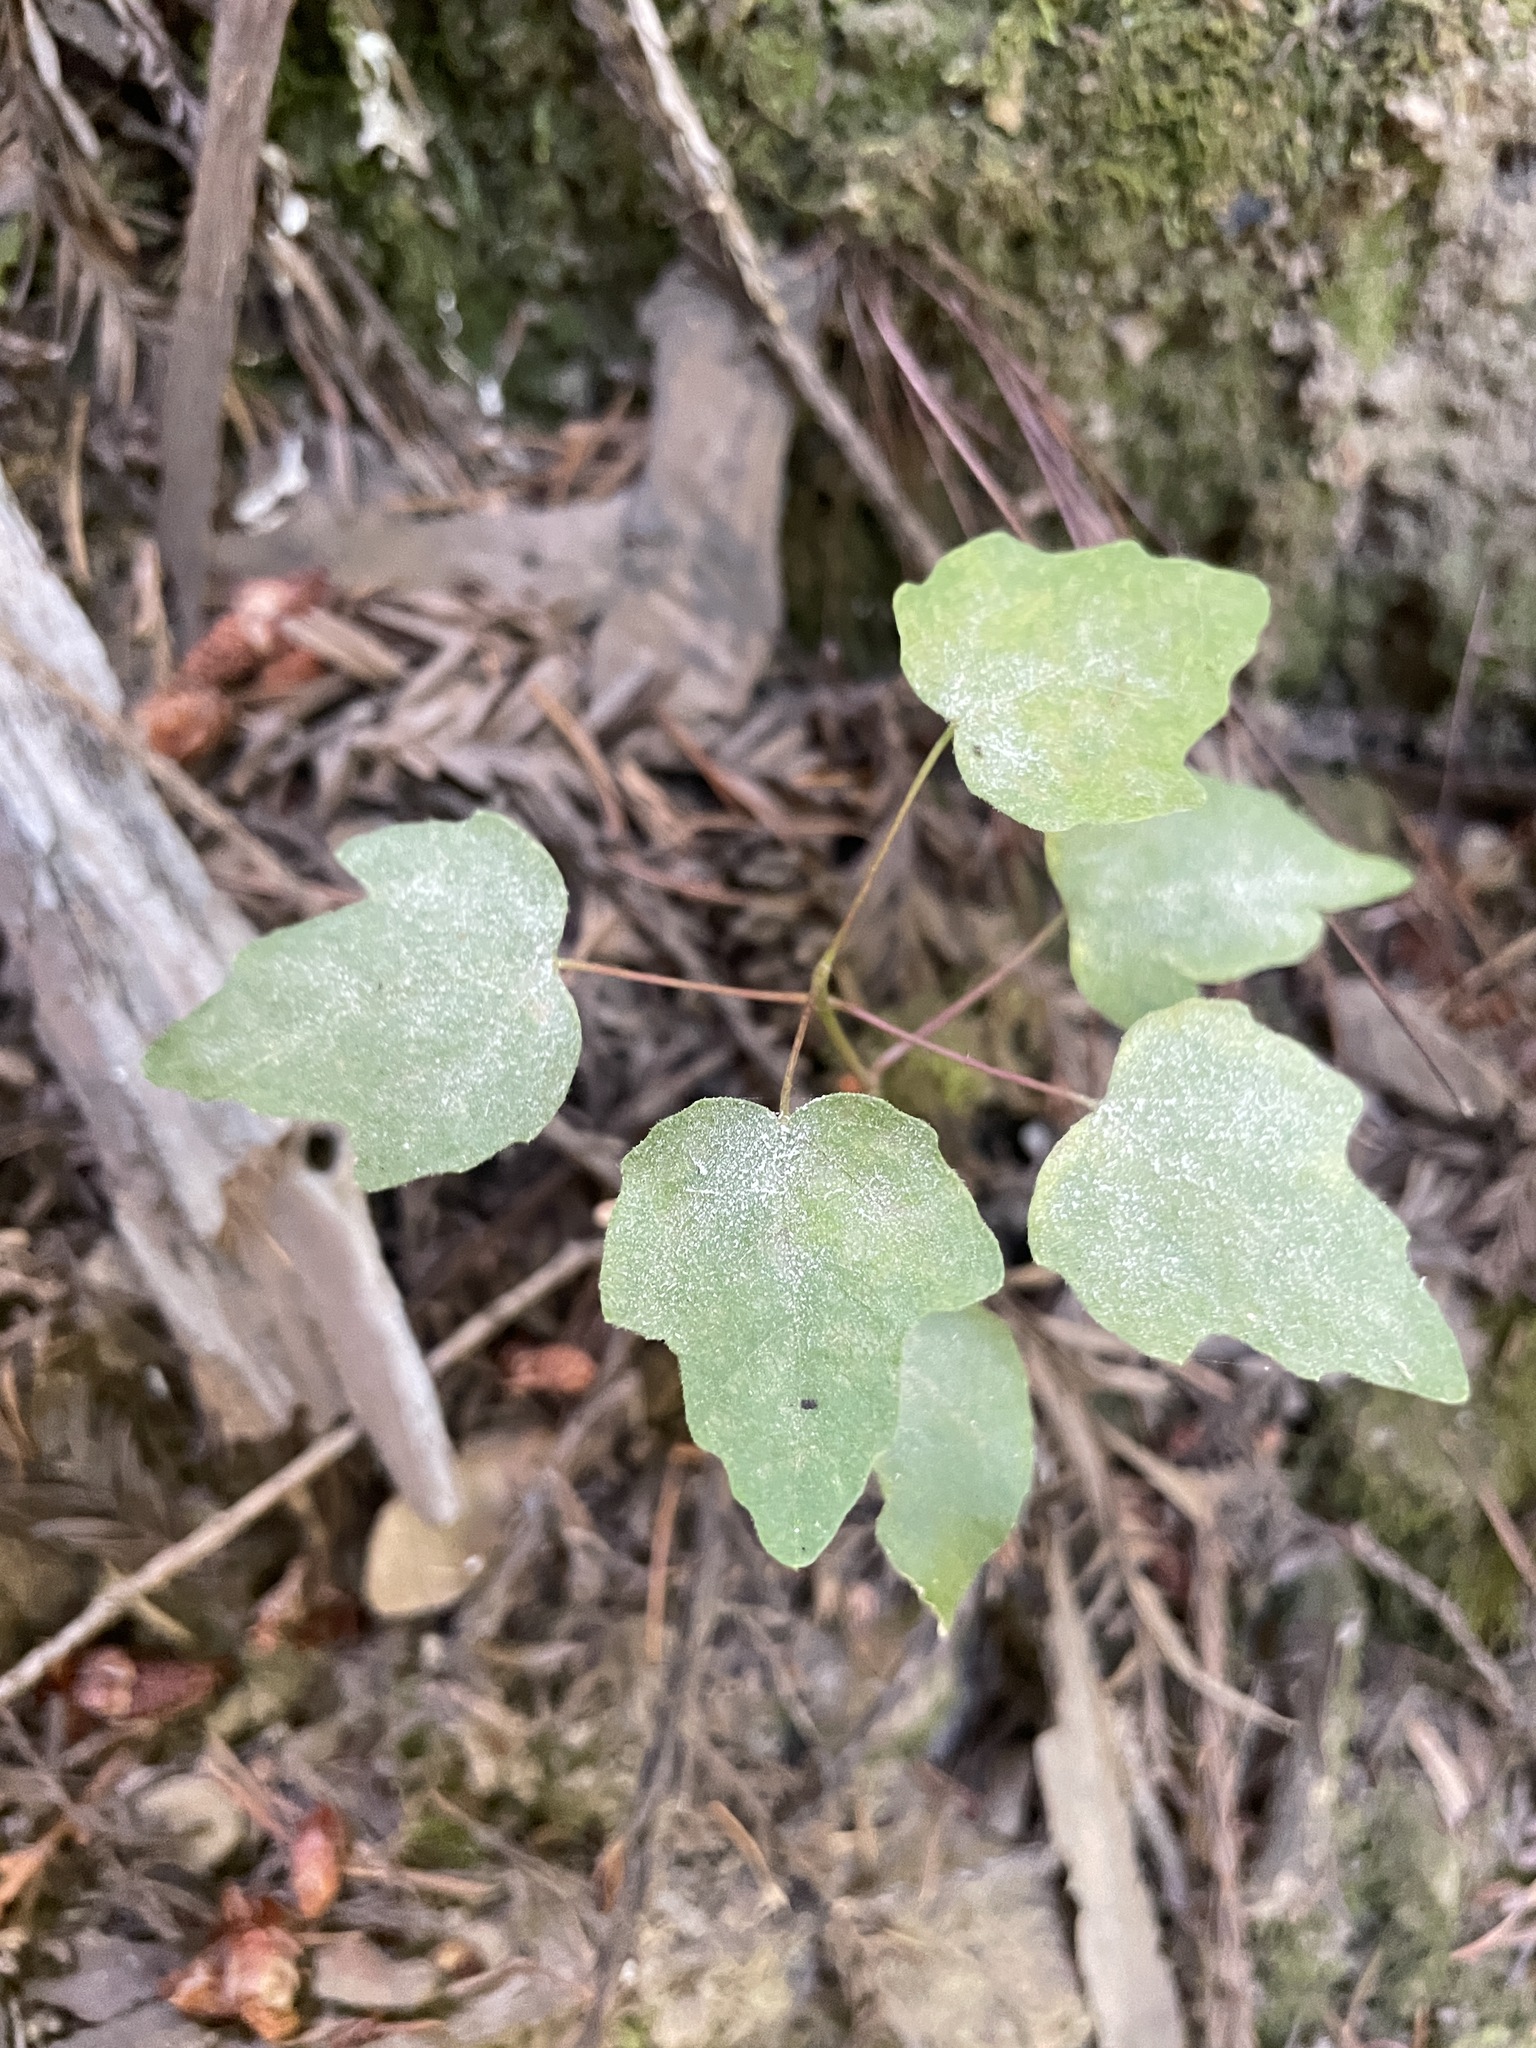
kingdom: Plantae
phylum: Tracheophyta
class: Magnoliopsida
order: Sapindales
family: Sapindaceae
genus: Acer
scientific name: Acer macrophyllum
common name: Oregon maple
